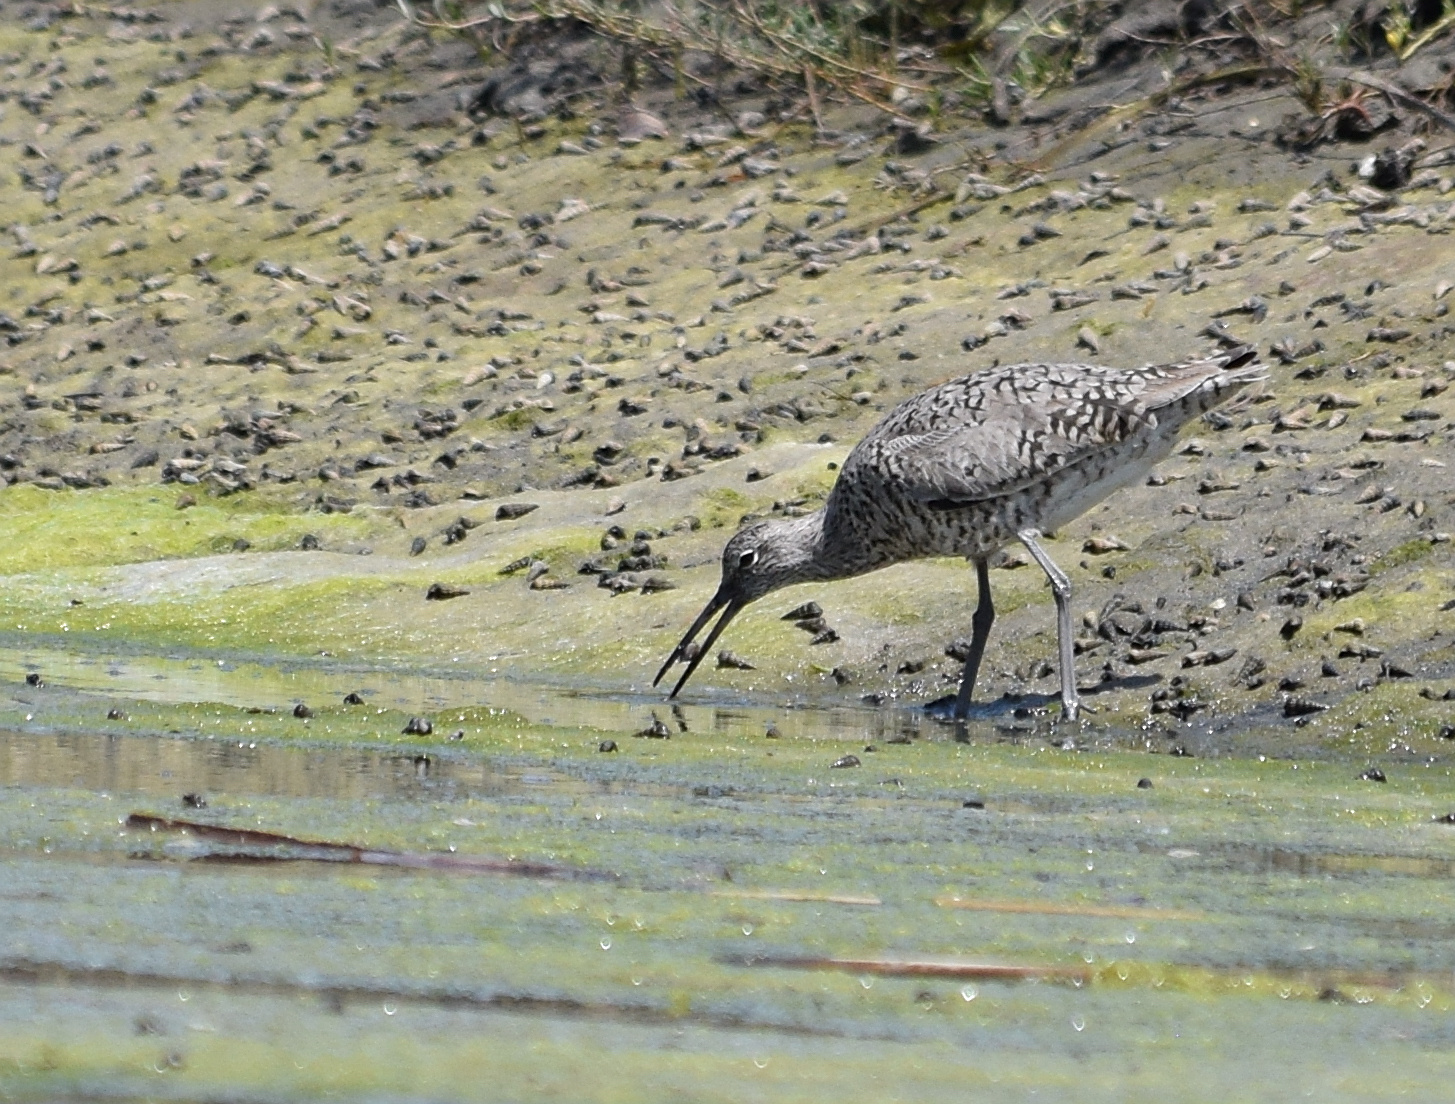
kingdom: Animalia
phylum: Chordata
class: Aves
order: Charadriiformes
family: Scolopacidae
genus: Tringa
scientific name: Tringa semipalmata
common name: Willet
